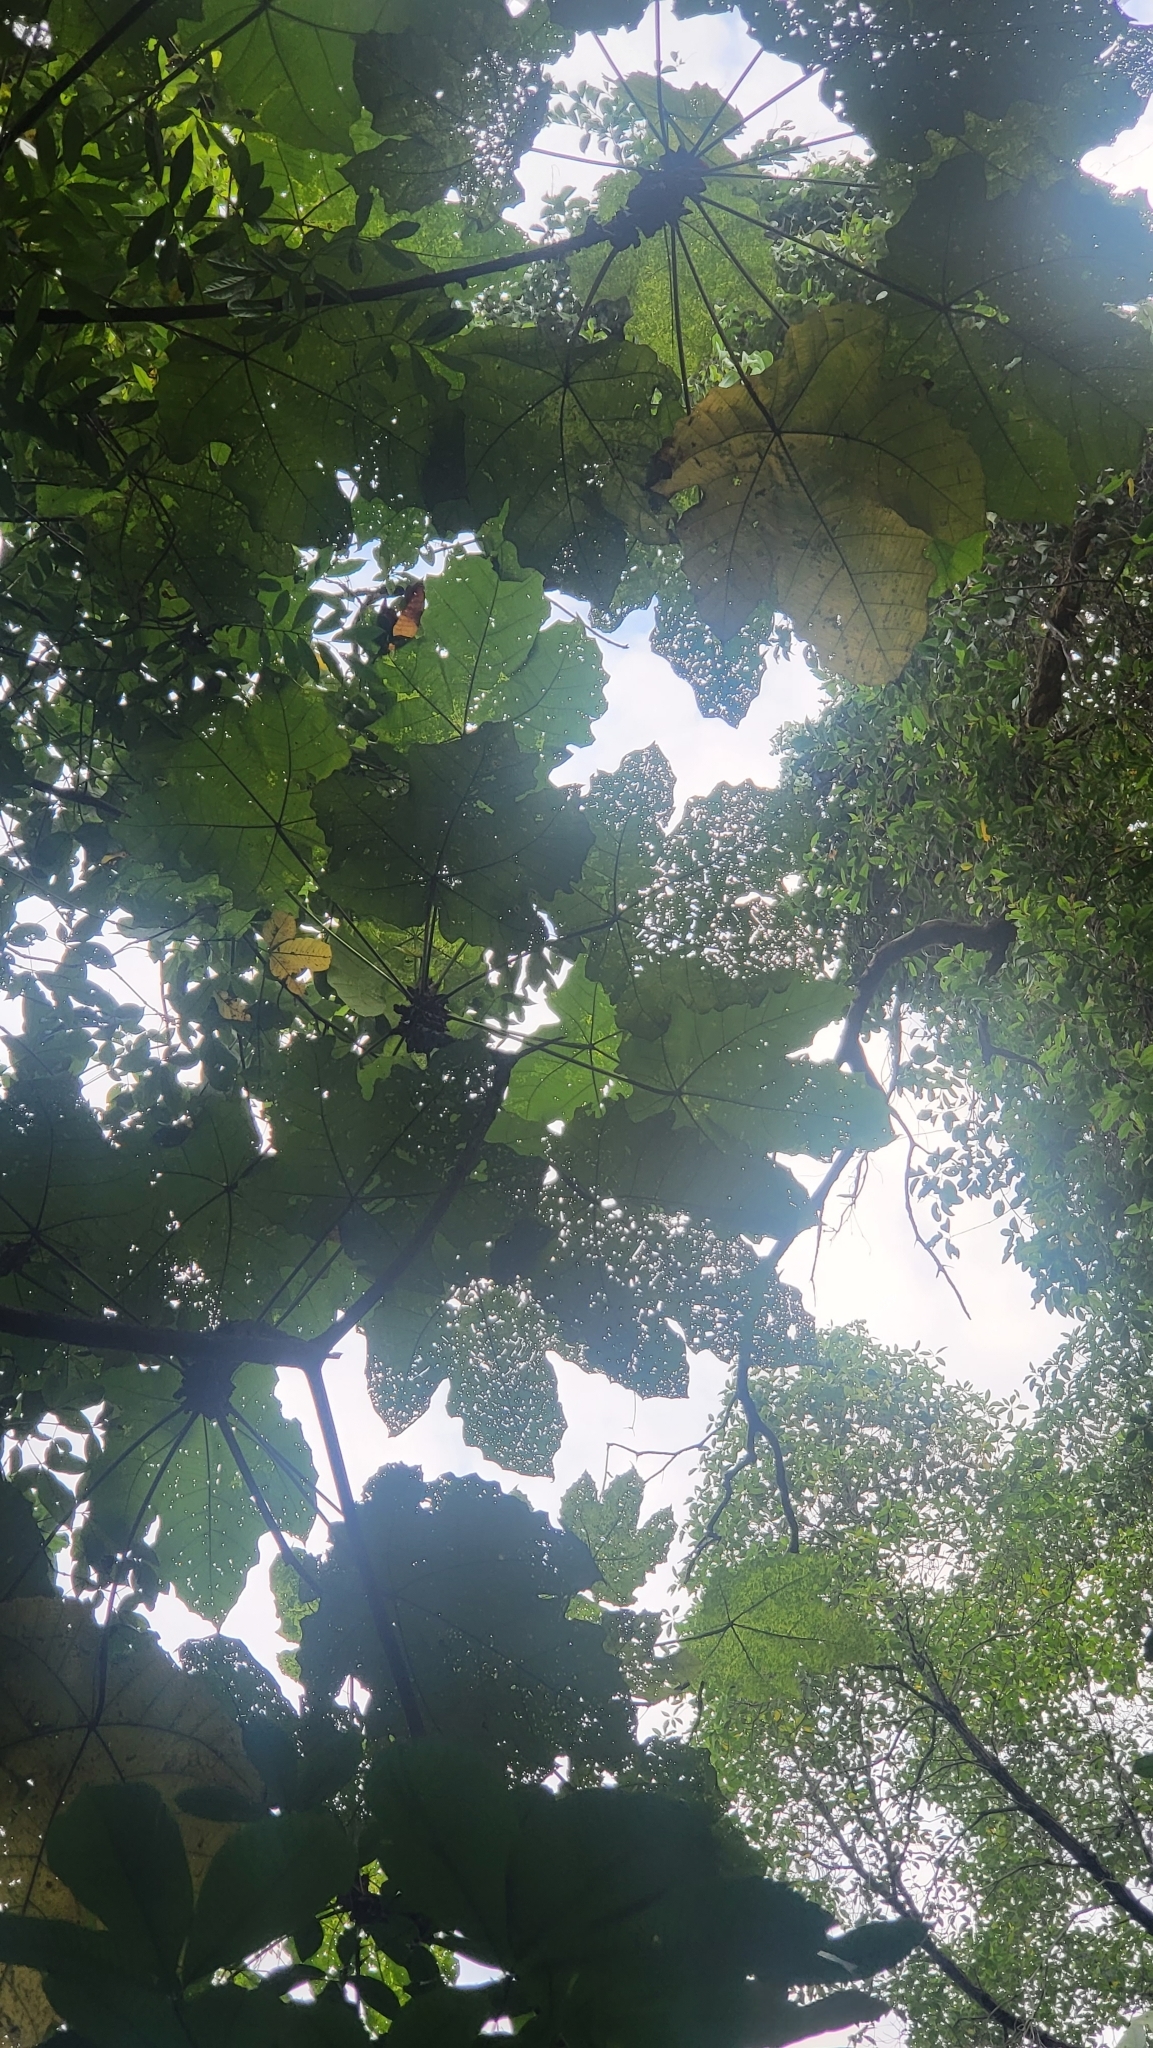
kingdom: Plantae
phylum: Tracheophyta
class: Magnoliopsida
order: Malpighiales
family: Euphorbiaceae
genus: Macaranga
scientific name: Macaranga gigantea
